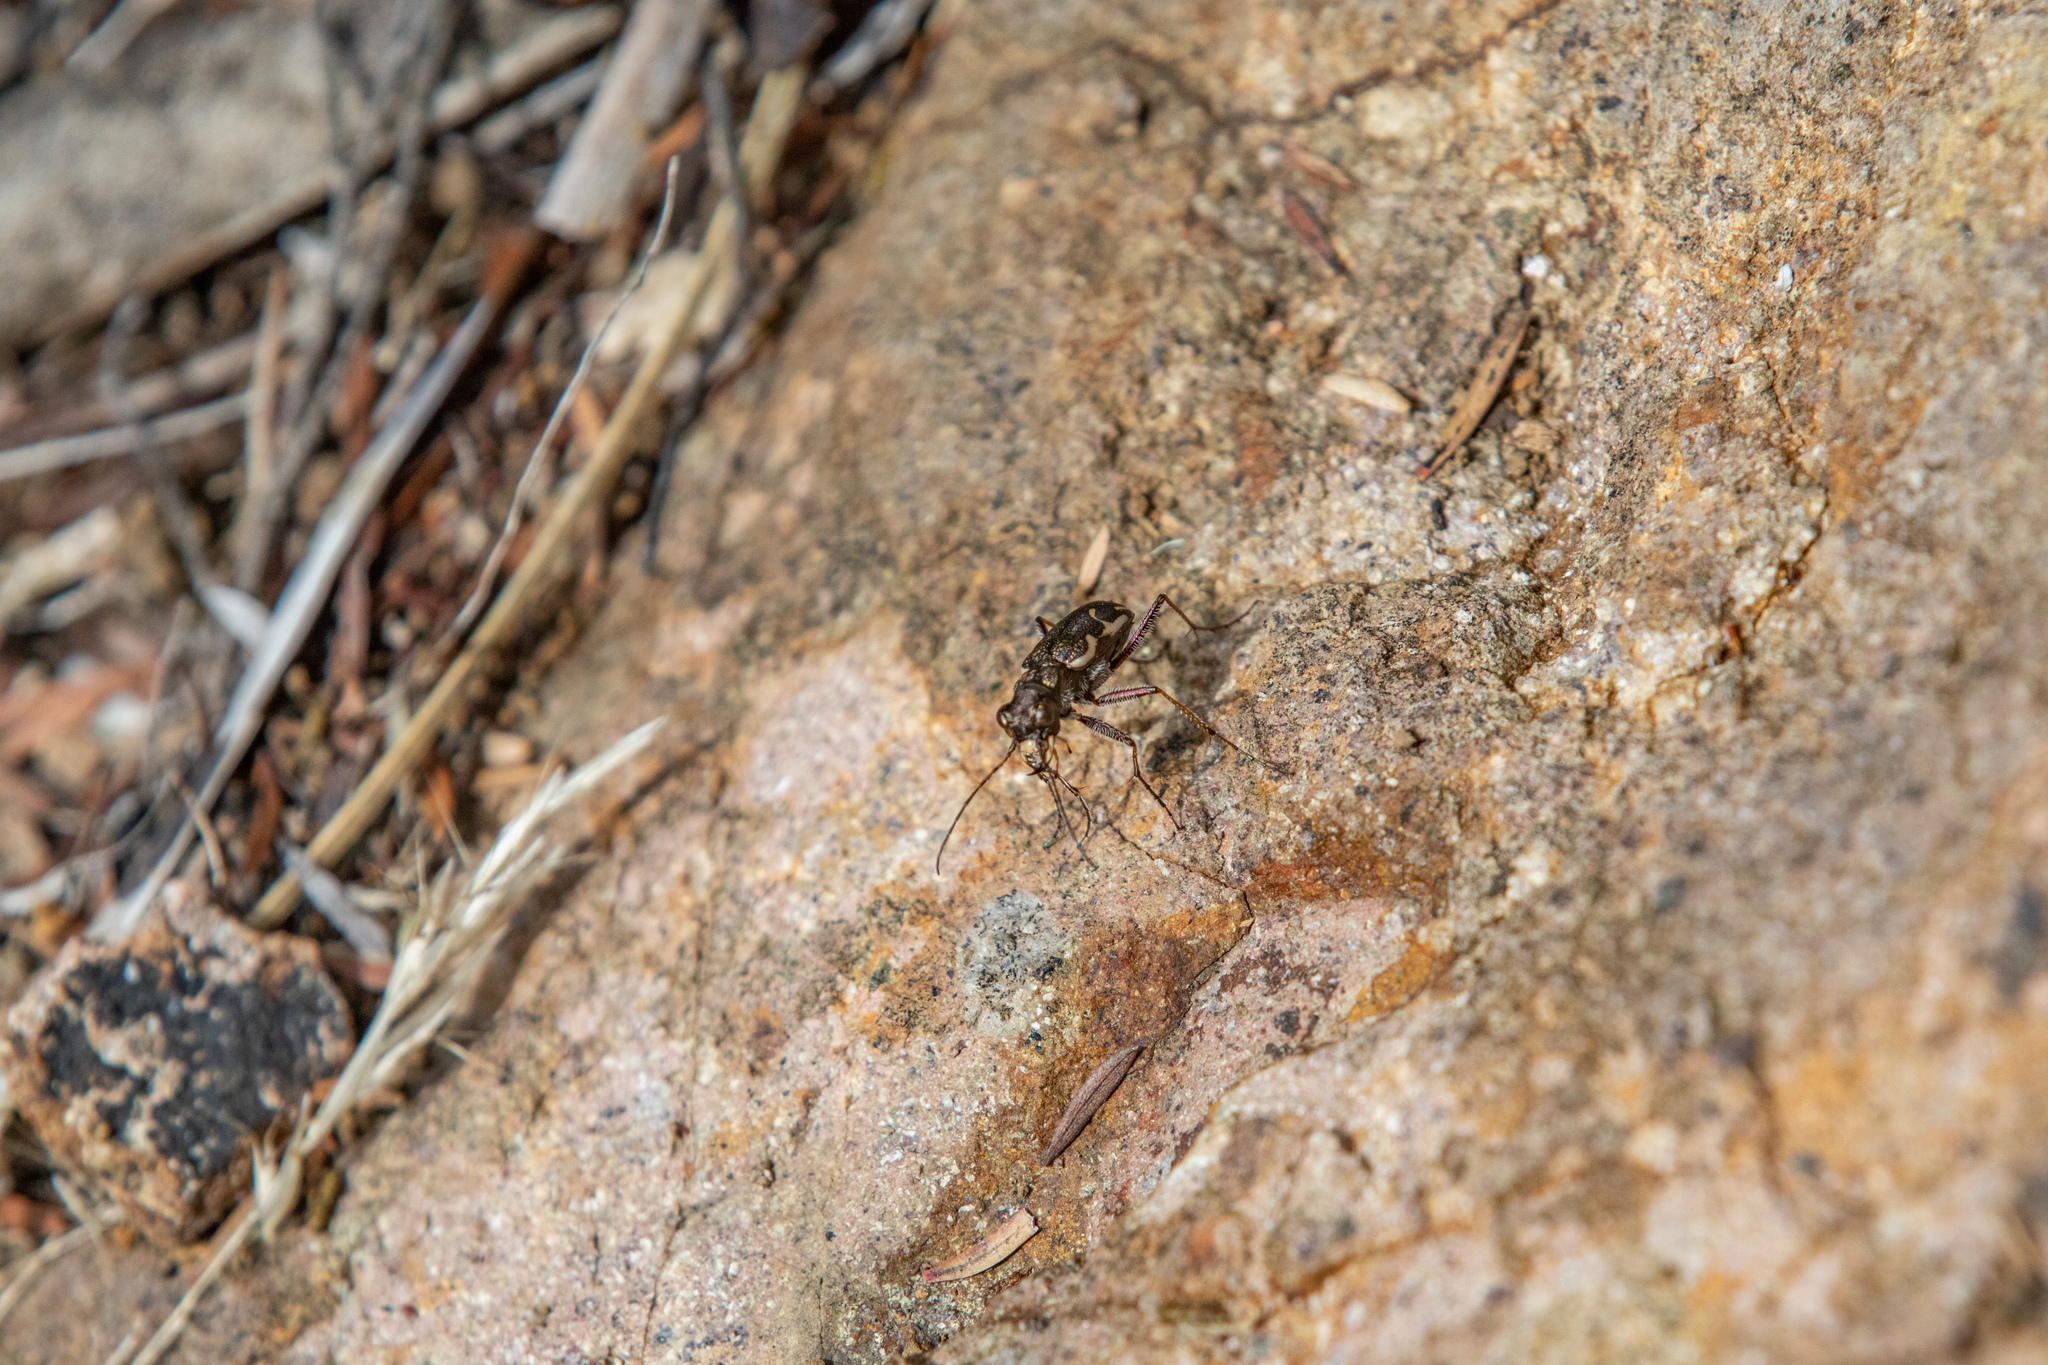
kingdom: Animalia
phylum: Arthropoda
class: Insecta
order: Coleoptera
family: Carabidae
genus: Neocicindela
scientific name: Neocicindela tuberculata
